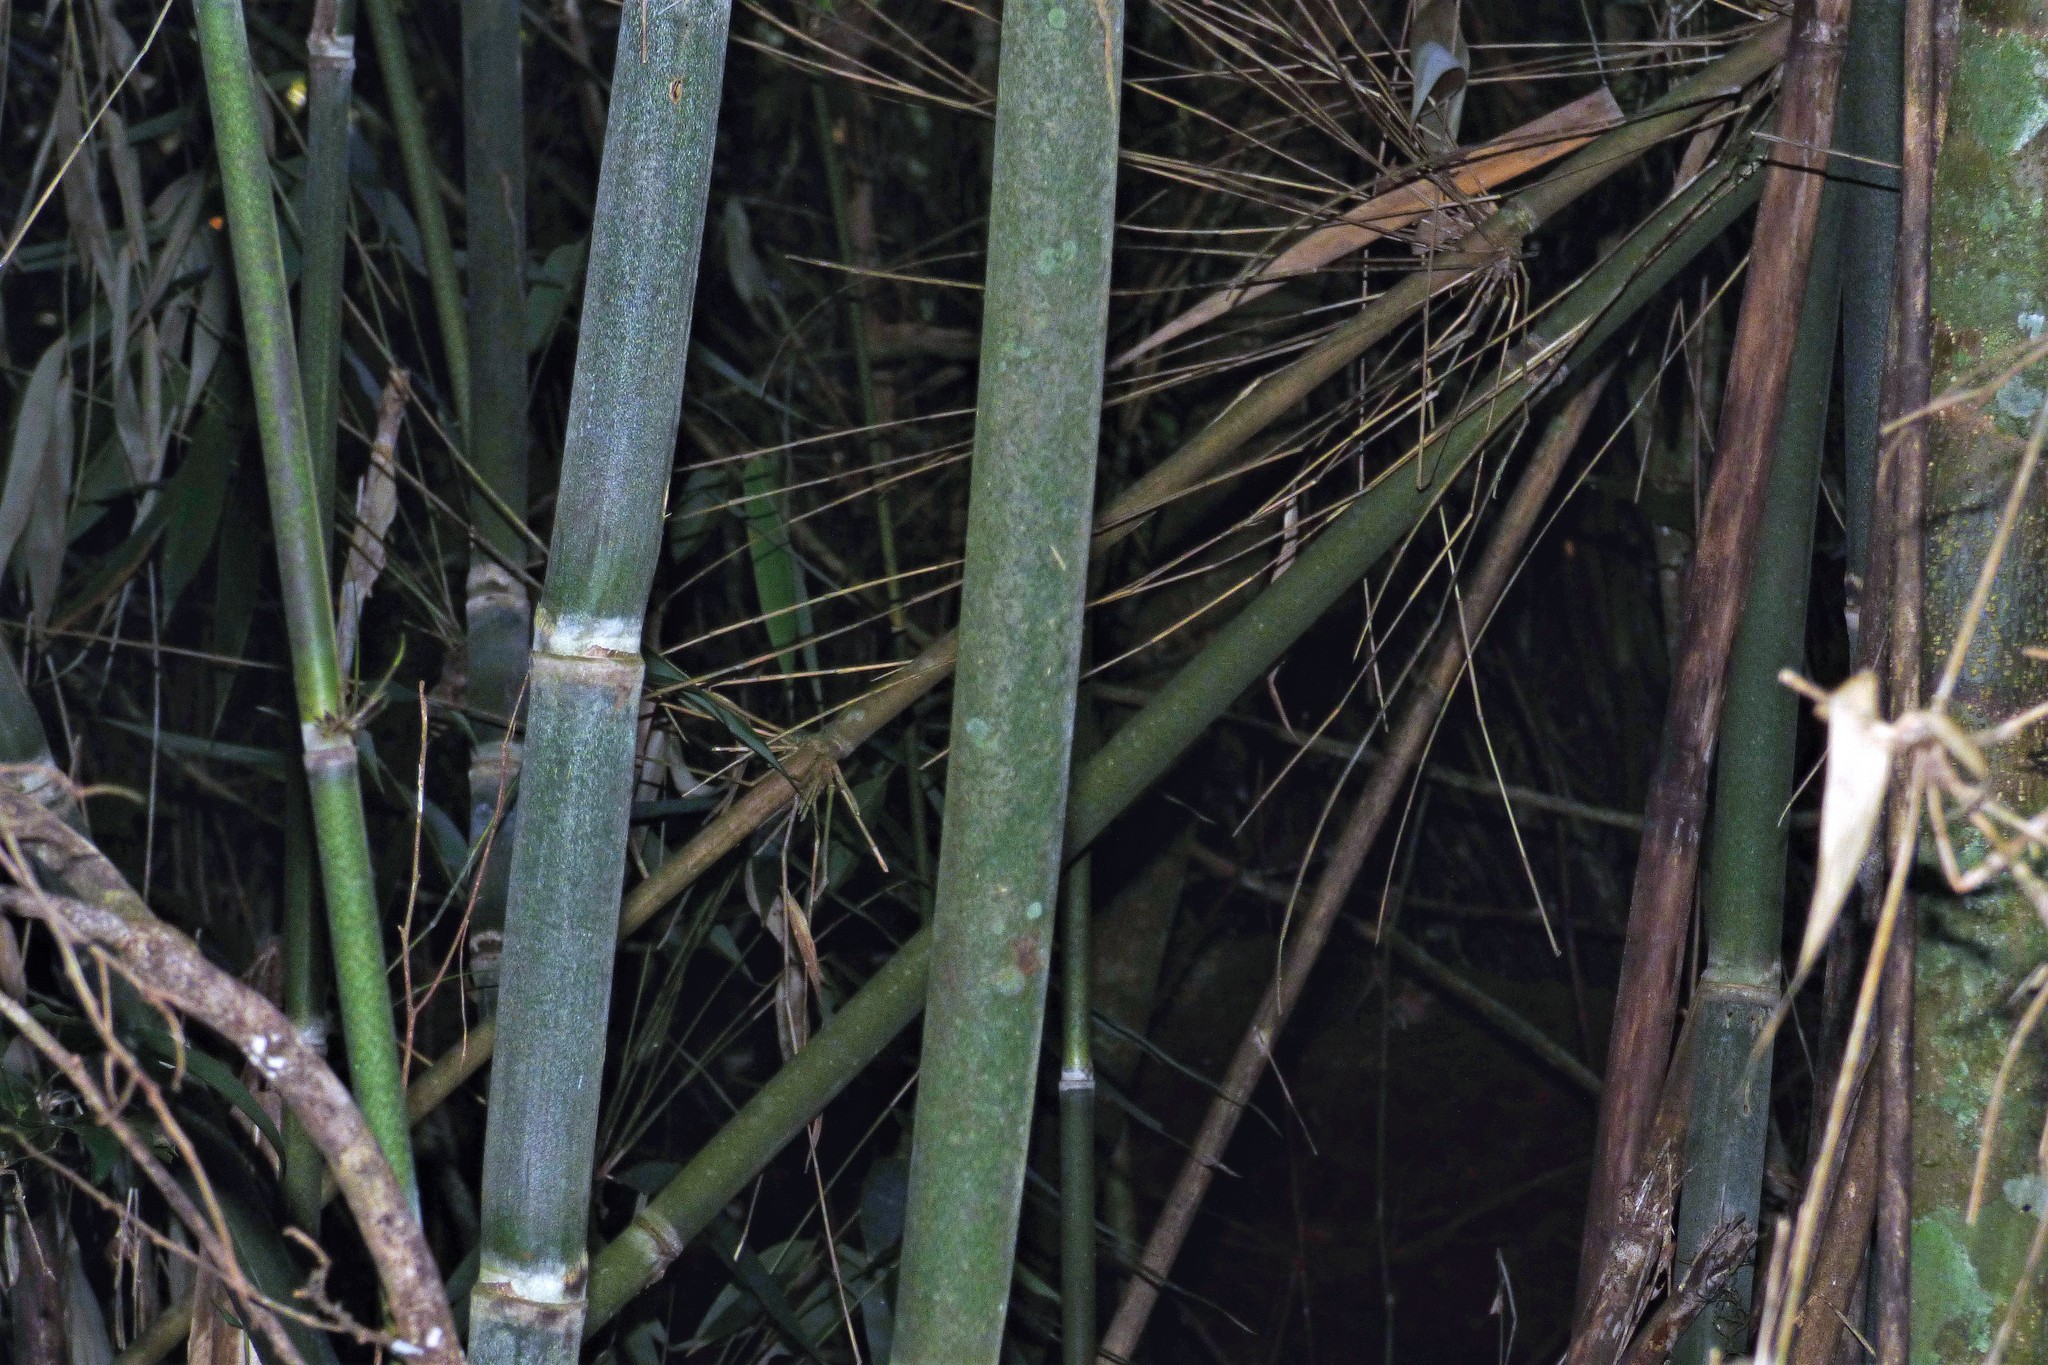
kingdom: Plantae
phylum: Tracheophyta
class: Liliopsida
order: Poales
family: Poaceae
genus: Merostachys
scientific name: Merostachys claussenii
